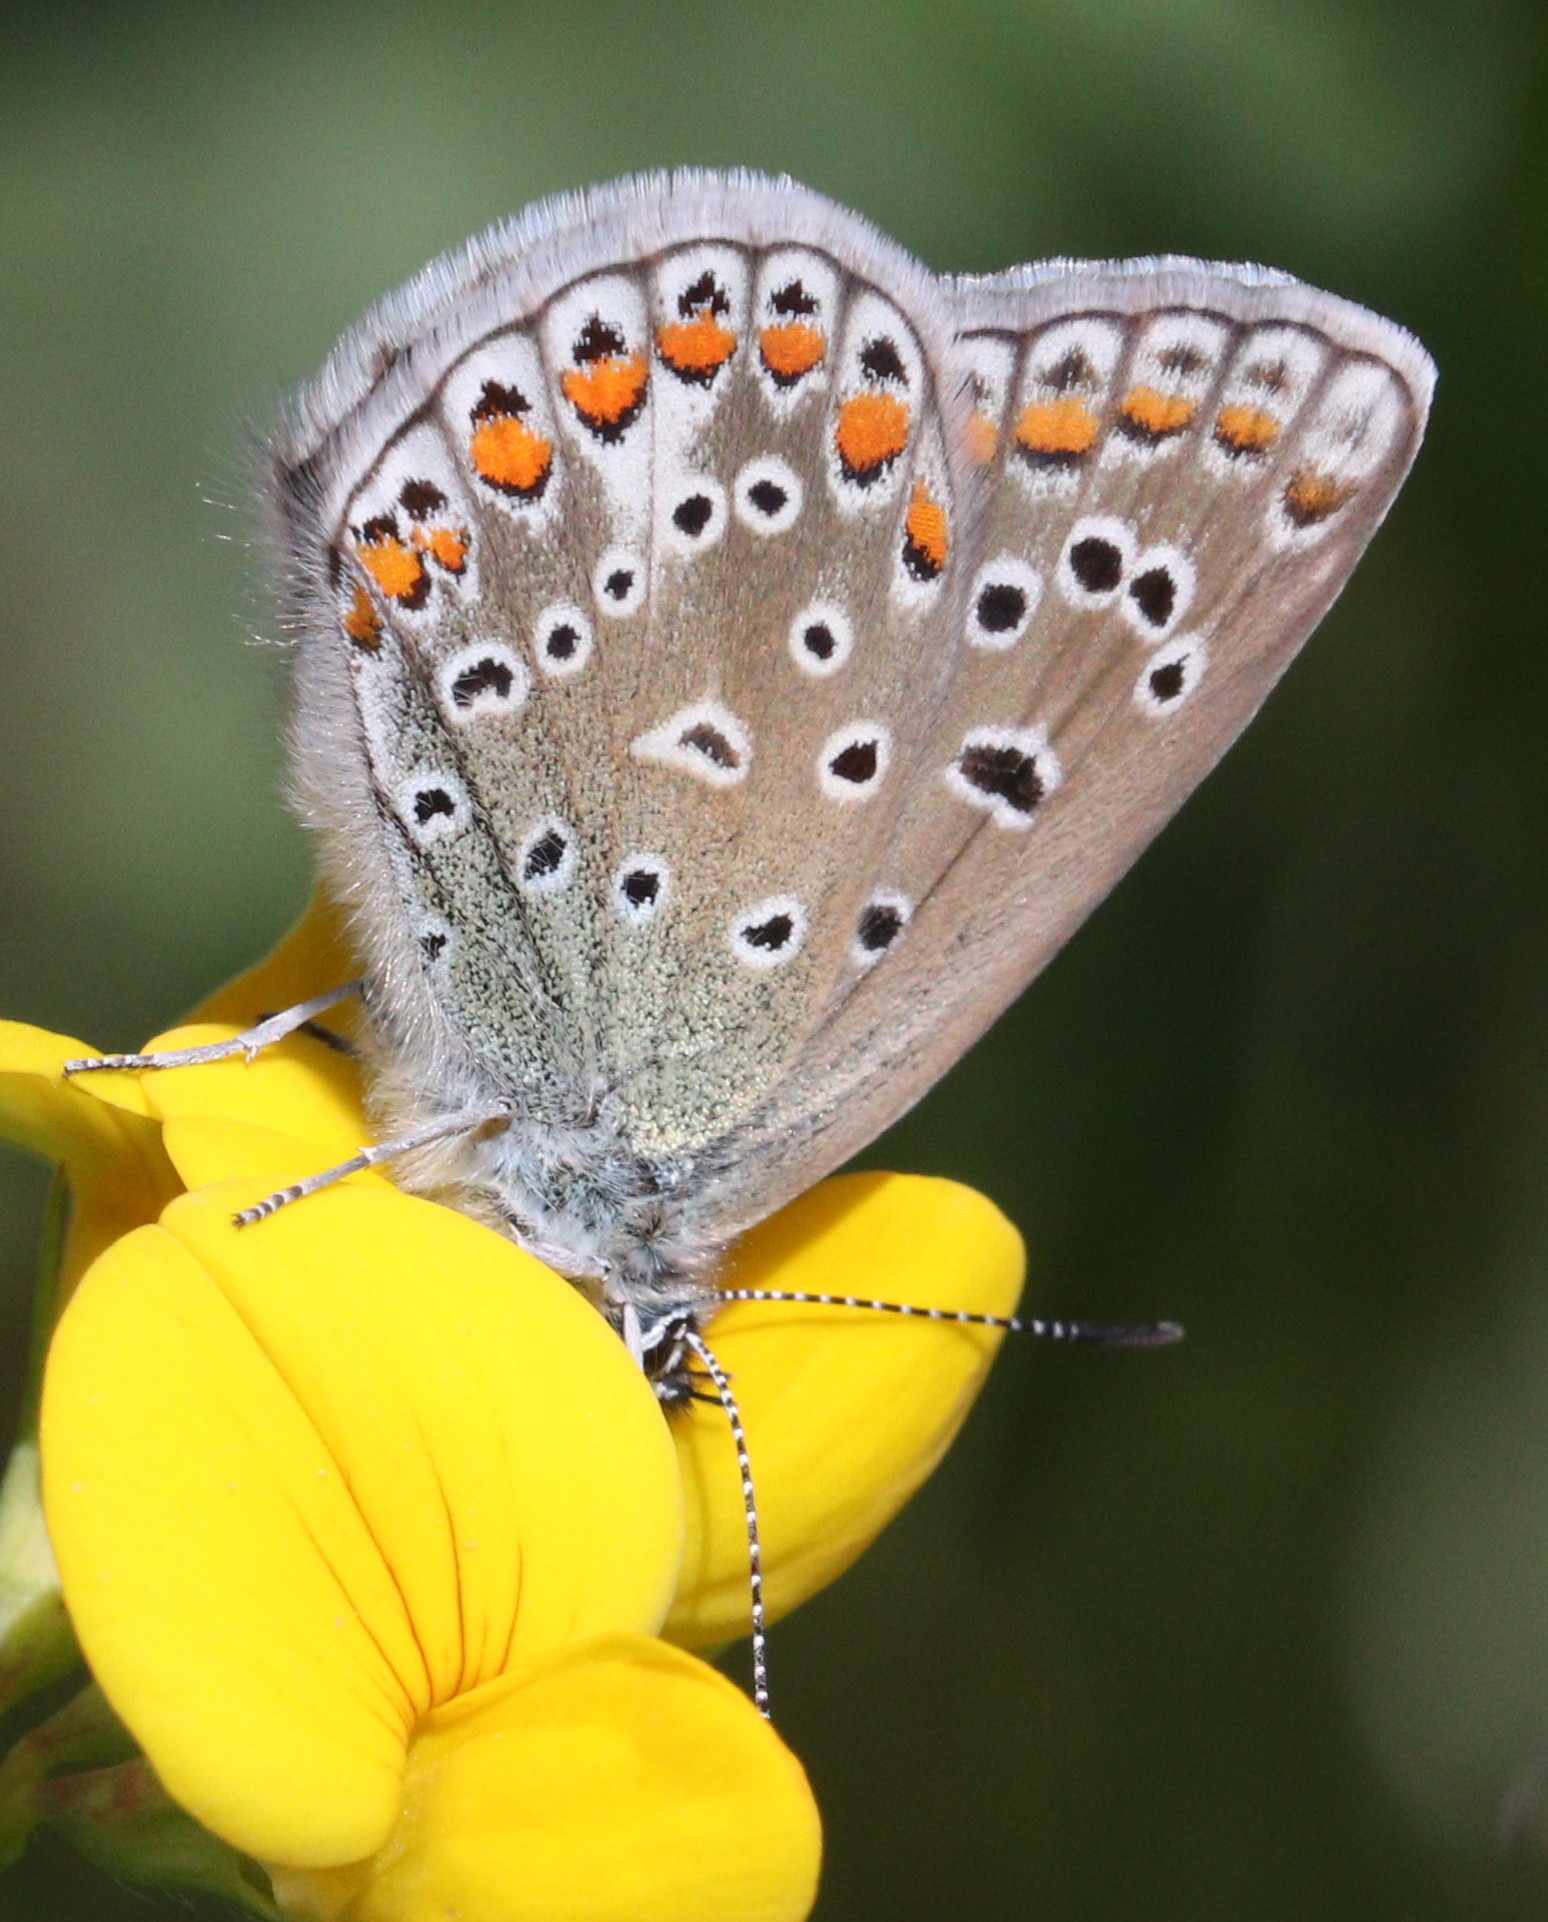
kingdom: Animalia
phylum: Arthropoda
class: Insecta
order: Lepidoptera
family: Lycaenidae
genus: Polyommatus
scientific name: Polyommatus icarus
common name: Common blue
